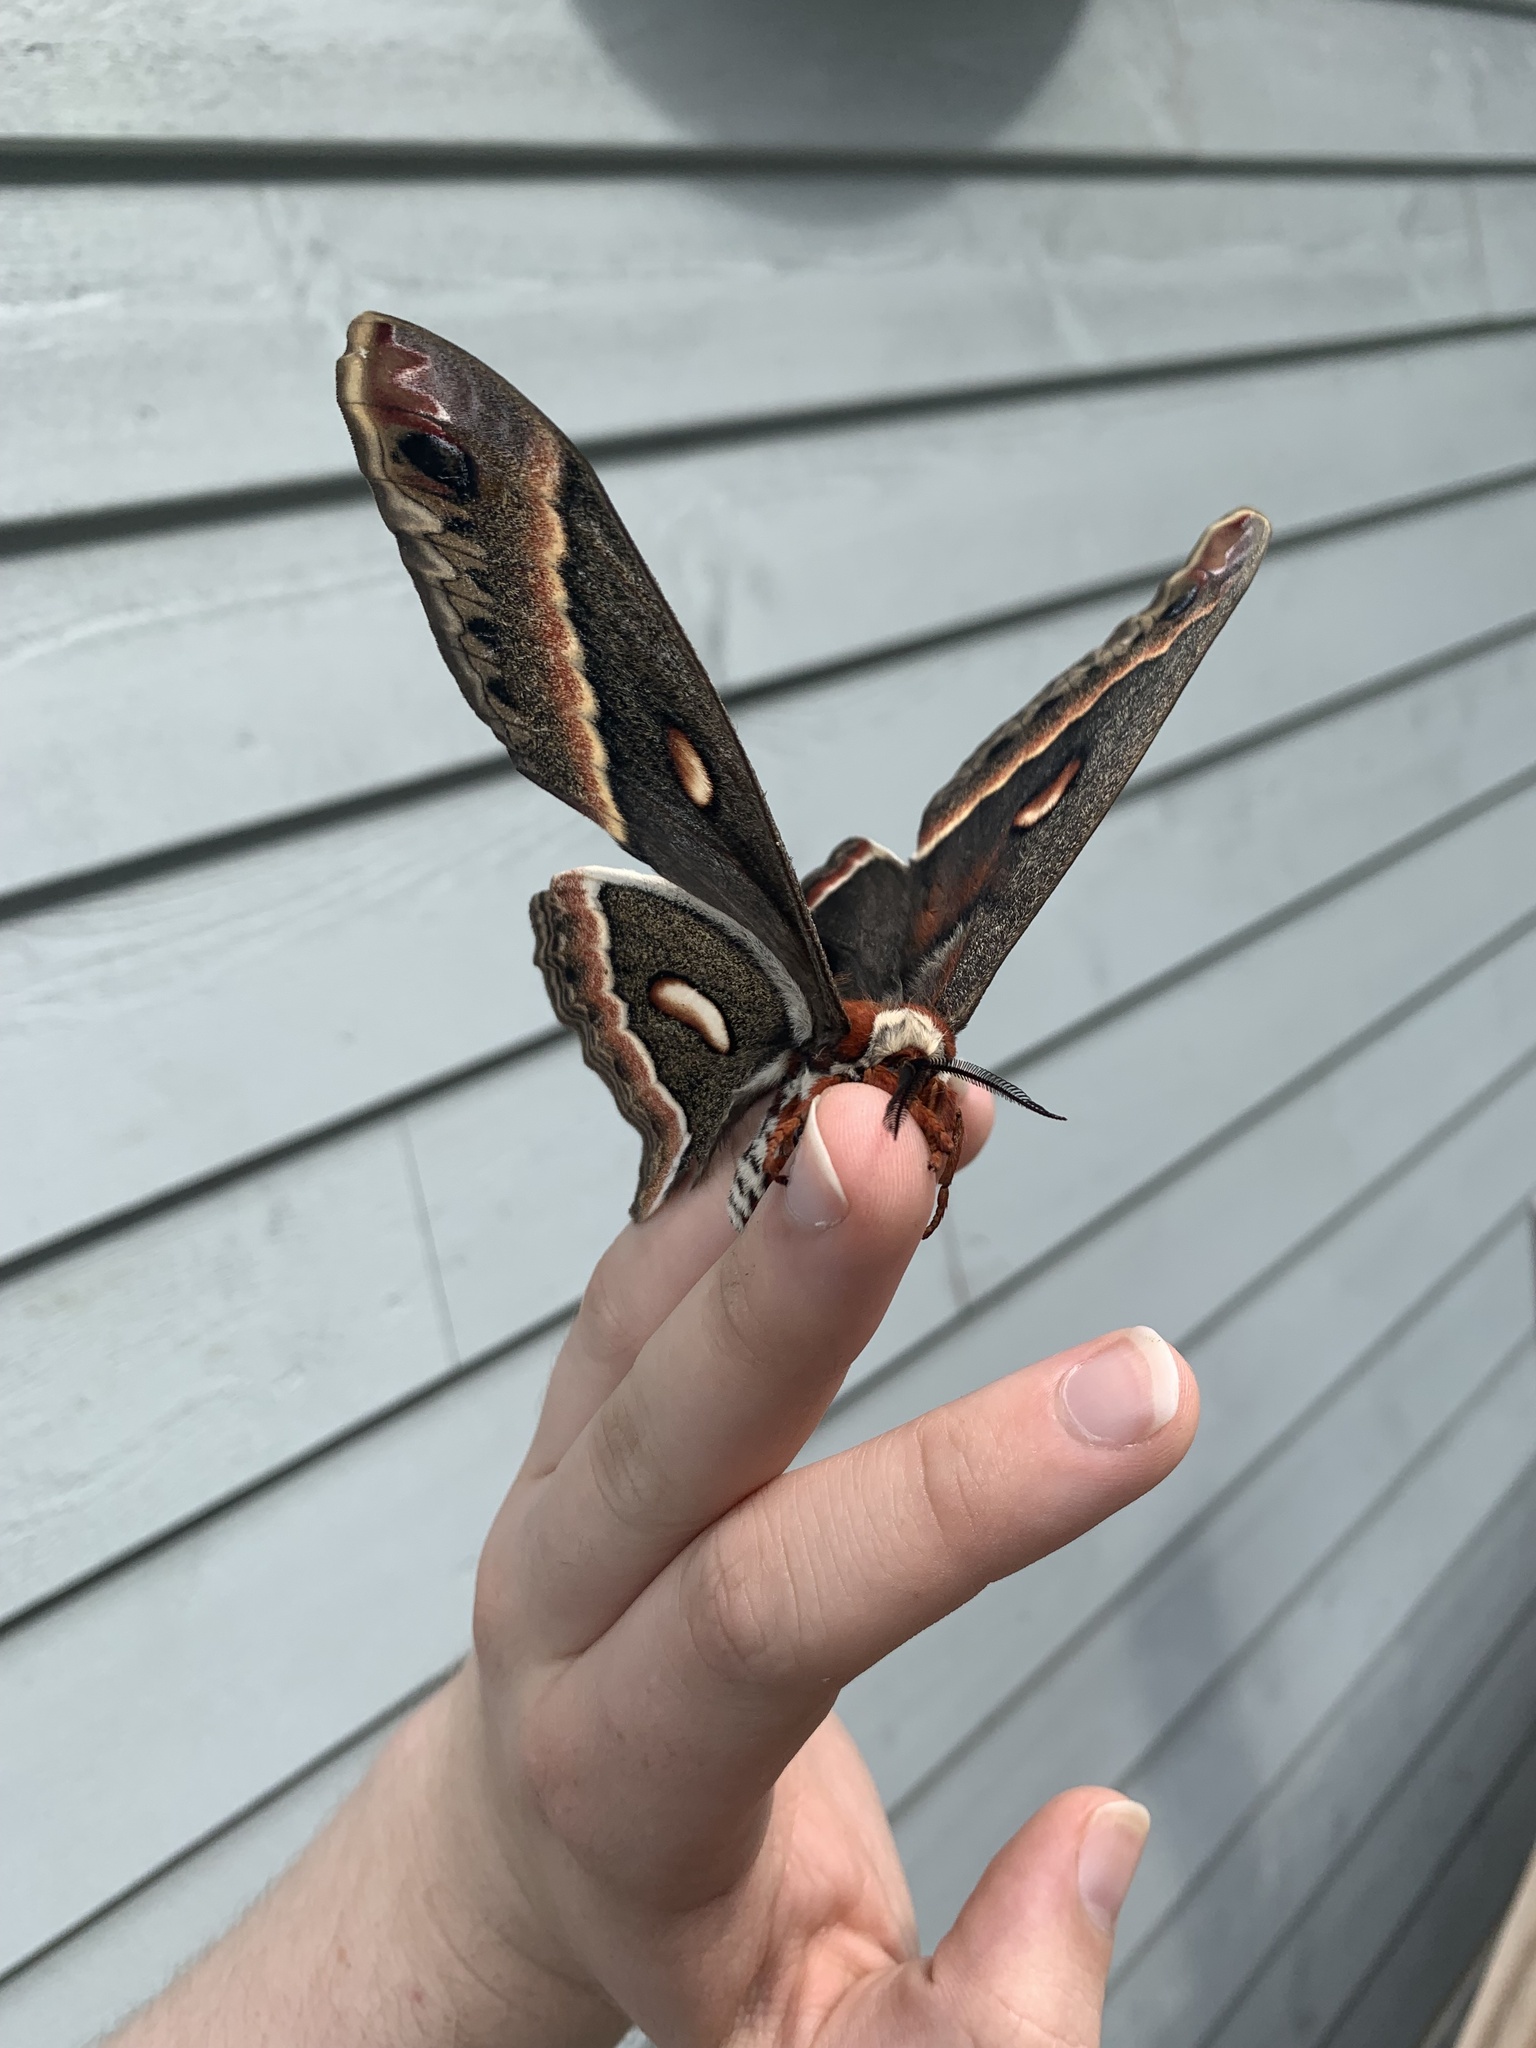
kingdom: Animalia
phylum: Arthropoda
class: Insecta
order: Lepidoptera
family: Saturniidae
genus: Hyalophora
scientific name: Hyalophora cecropia
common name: Cecropia silkmoth
